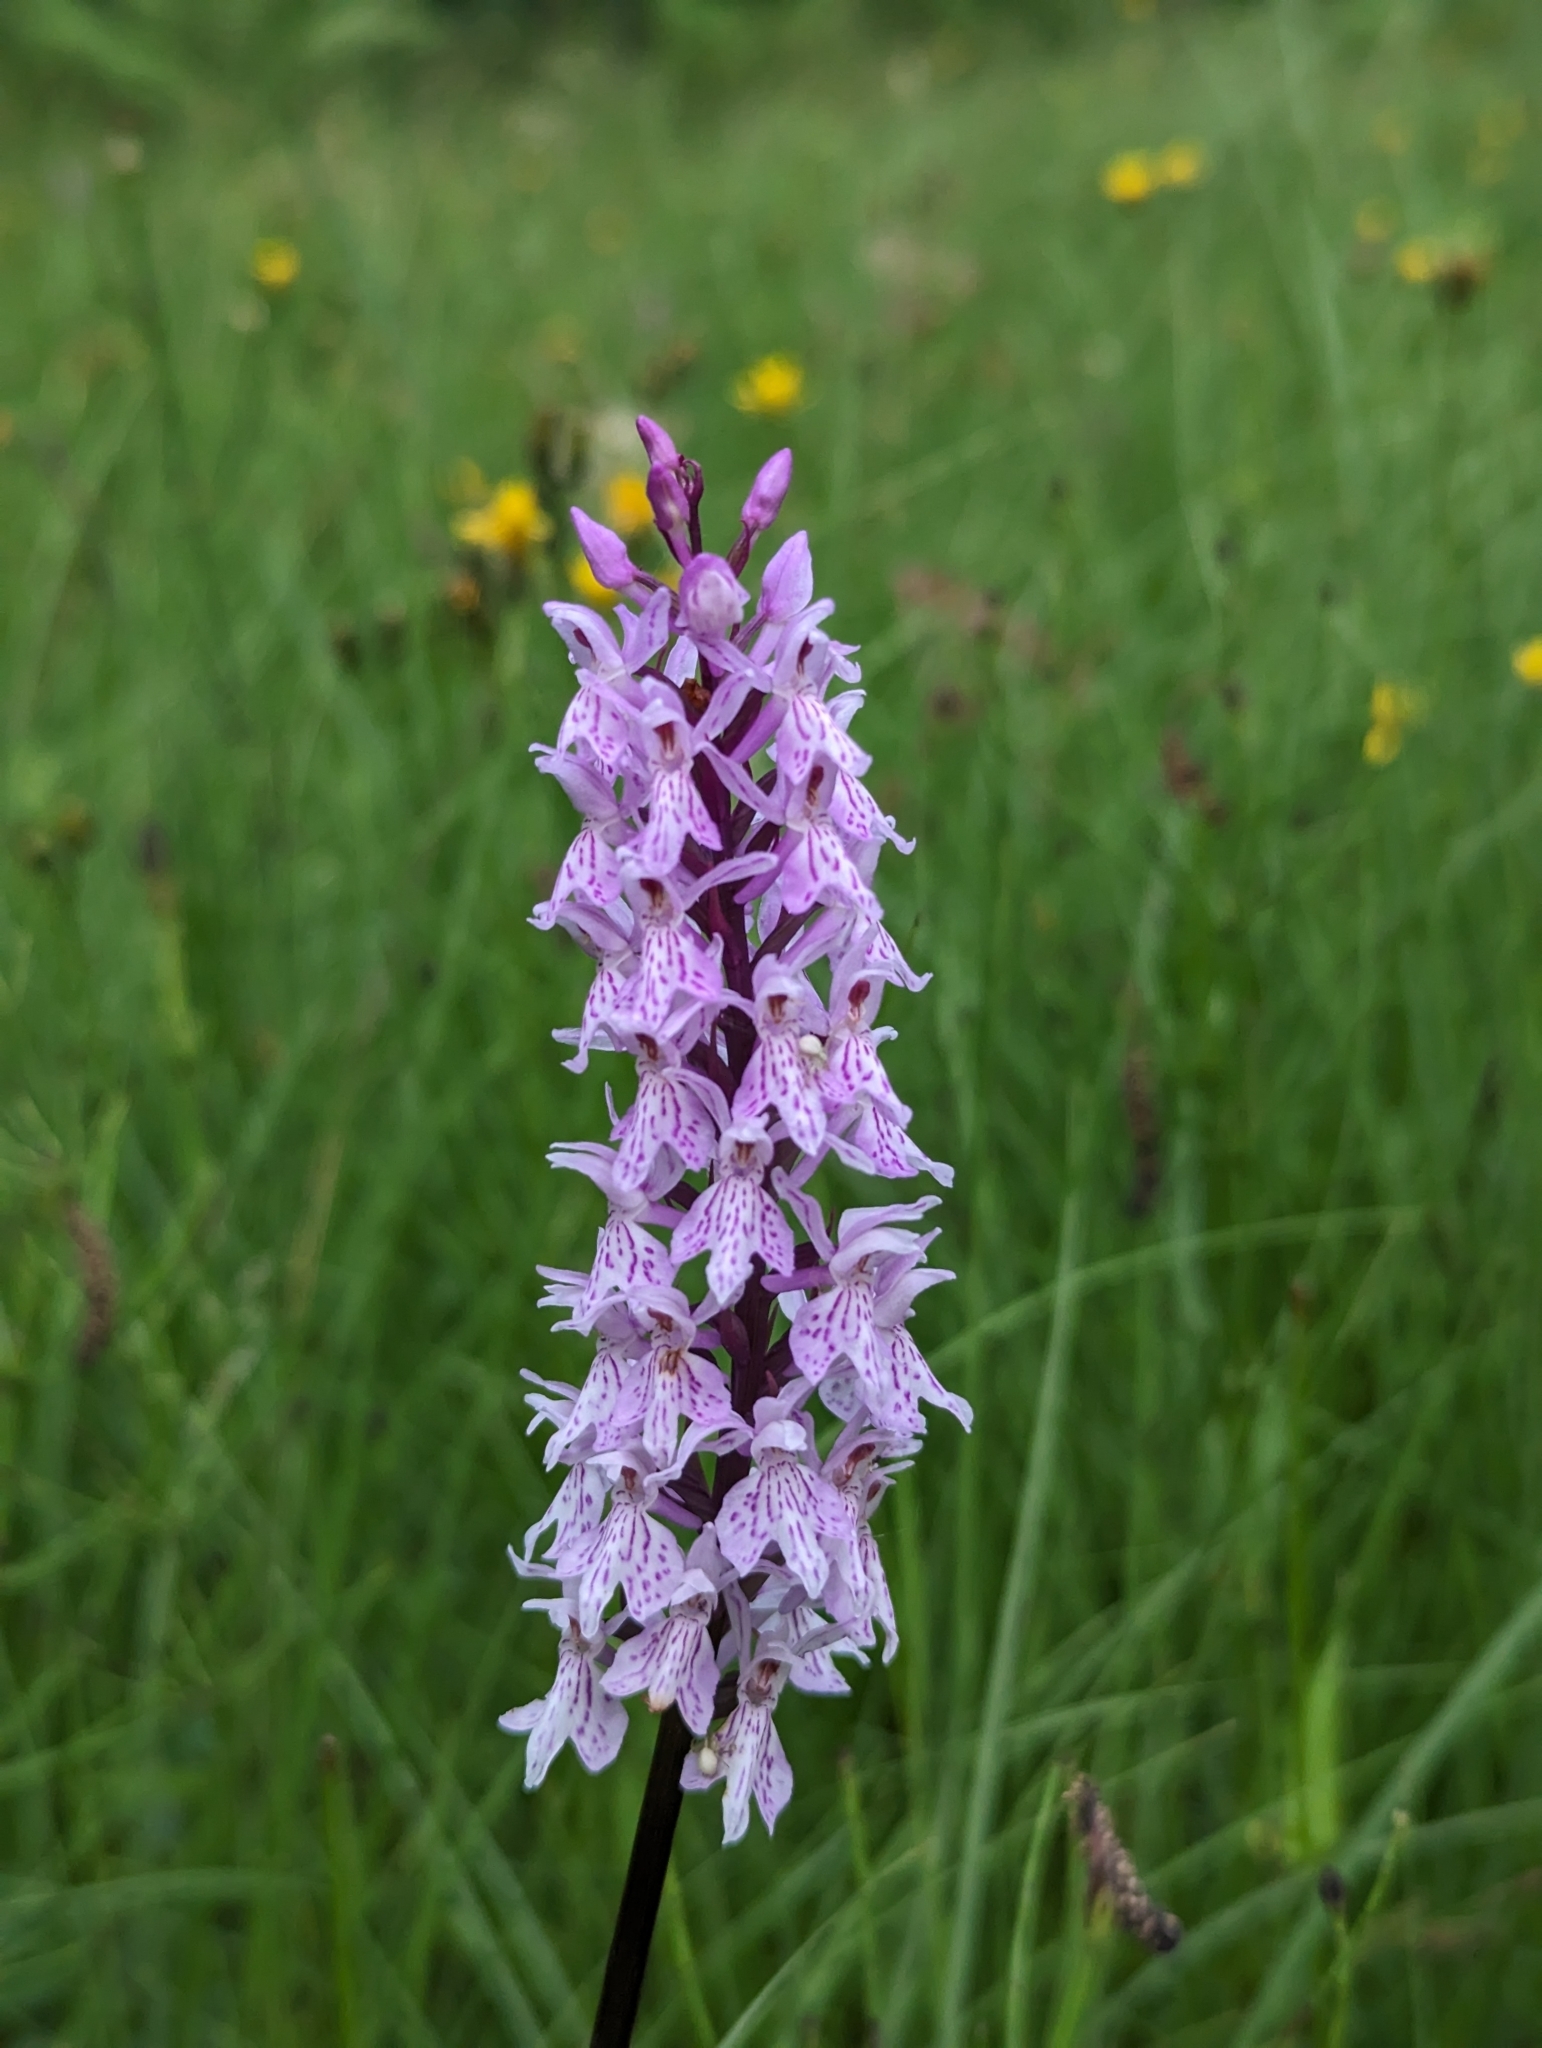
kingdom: Plantae
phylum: Tracheophyta
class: Liliopsida
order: Asparagales
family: Orchidaceae
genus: Dactylorhiza
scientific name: Dactylorhiza maculata
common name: Heath spotted-orchid
